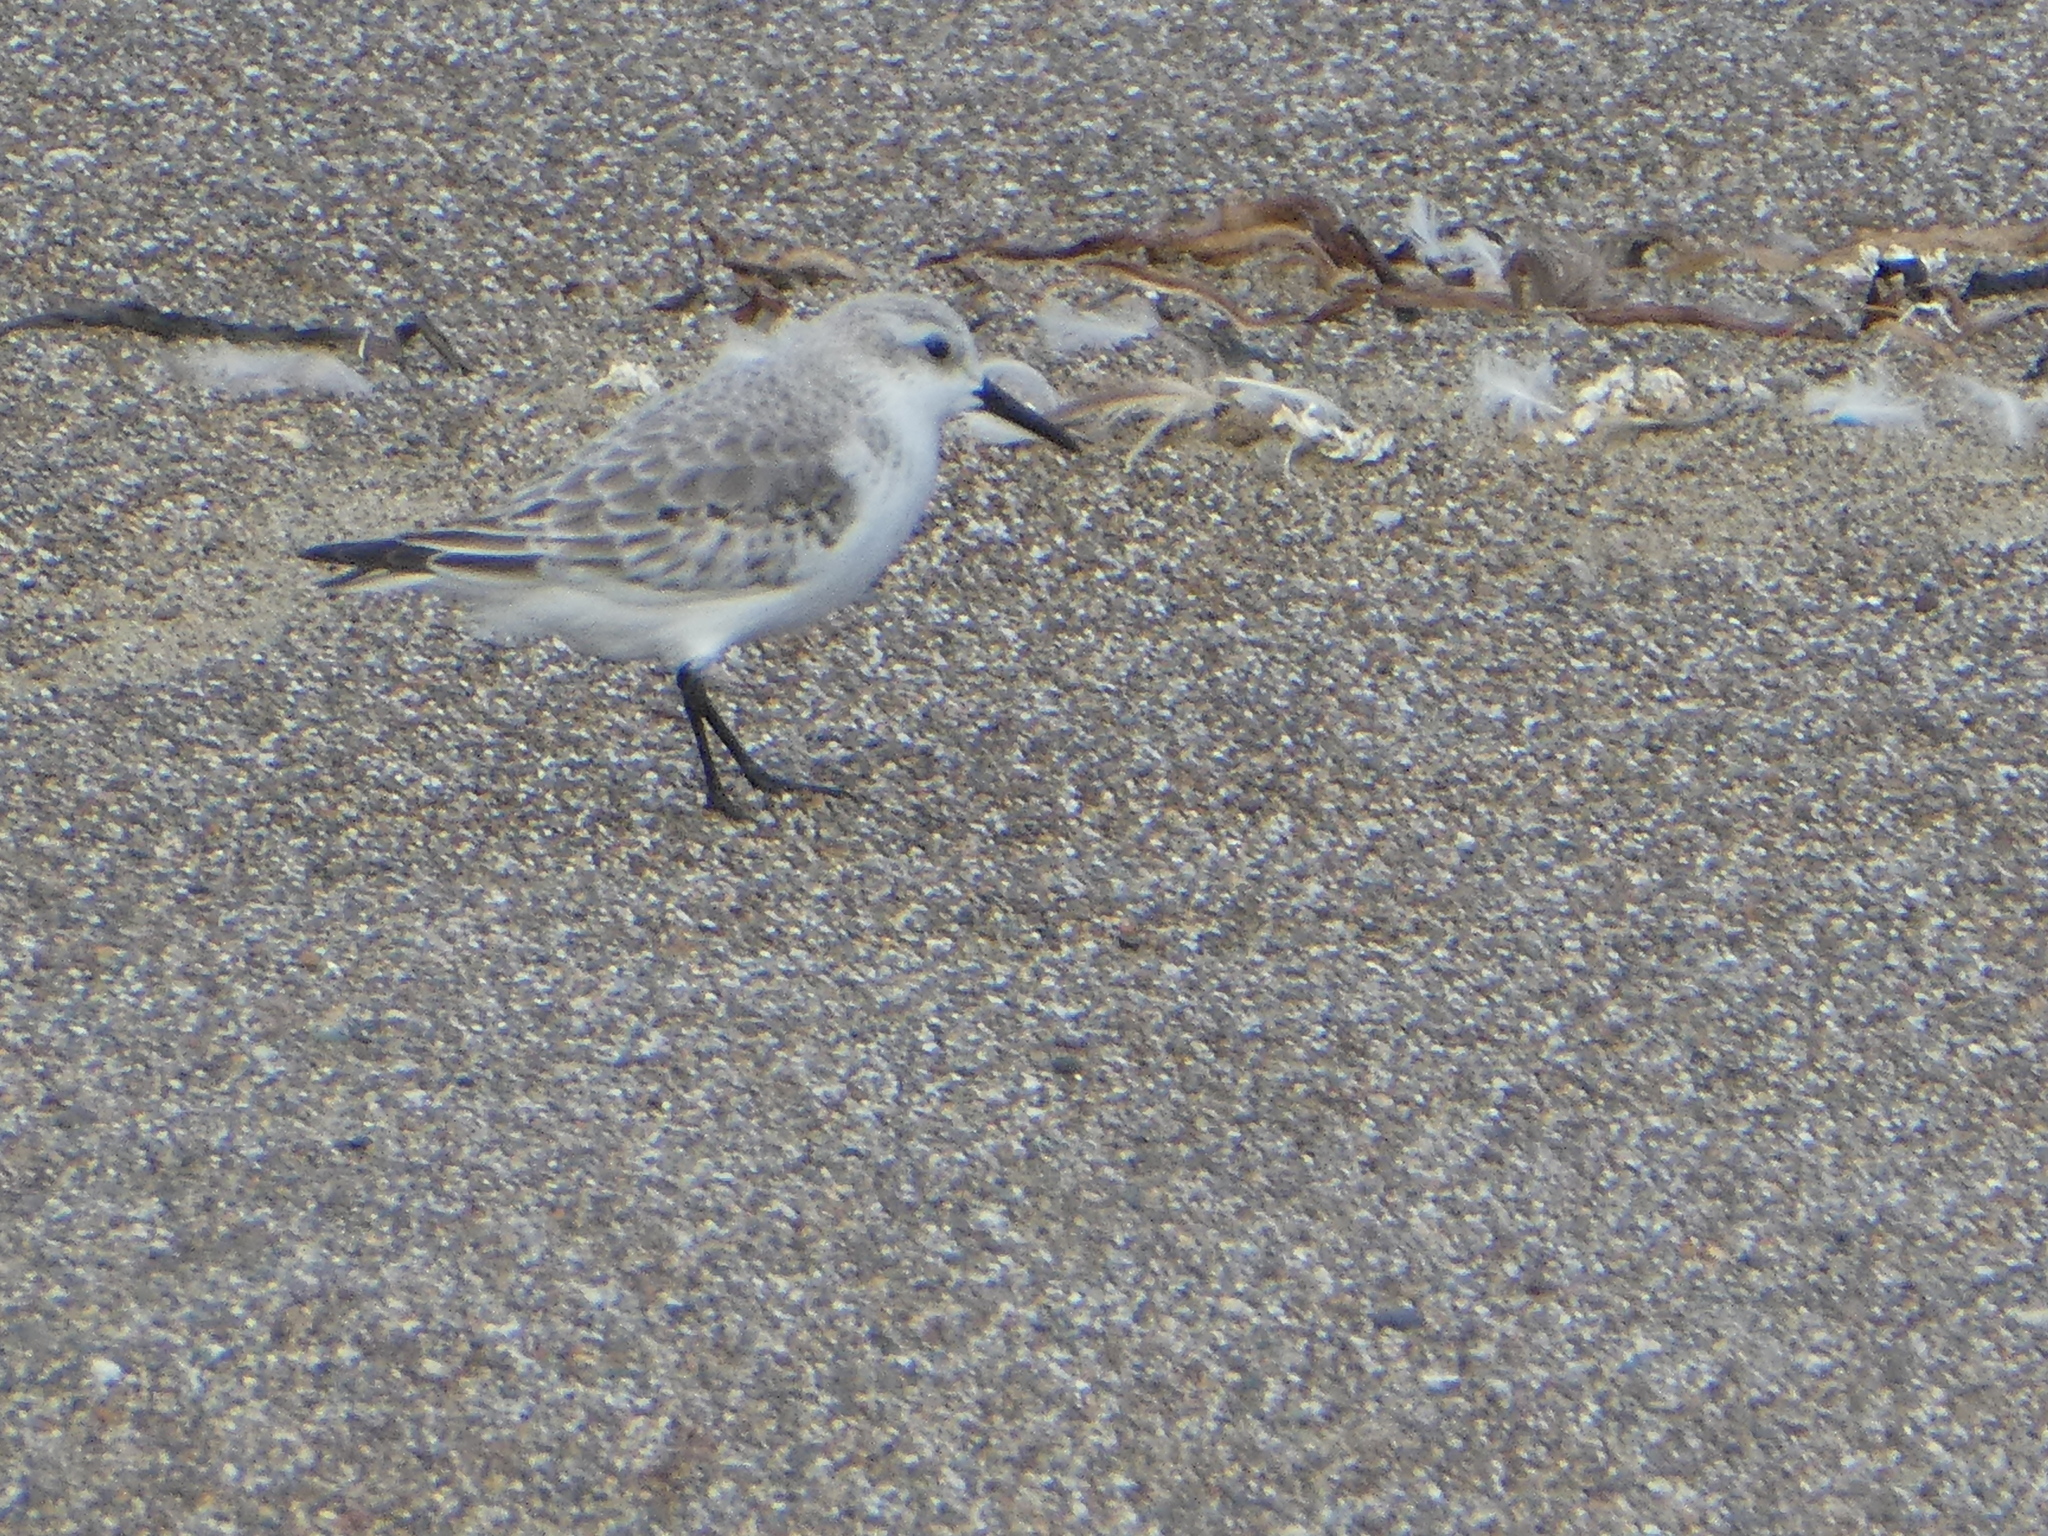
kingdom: Animalia
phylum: Chordata
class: Aves
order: Charadriiformes
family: Scolopacidae
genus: Calidris
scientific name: Calidris alba
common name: Sanderling
